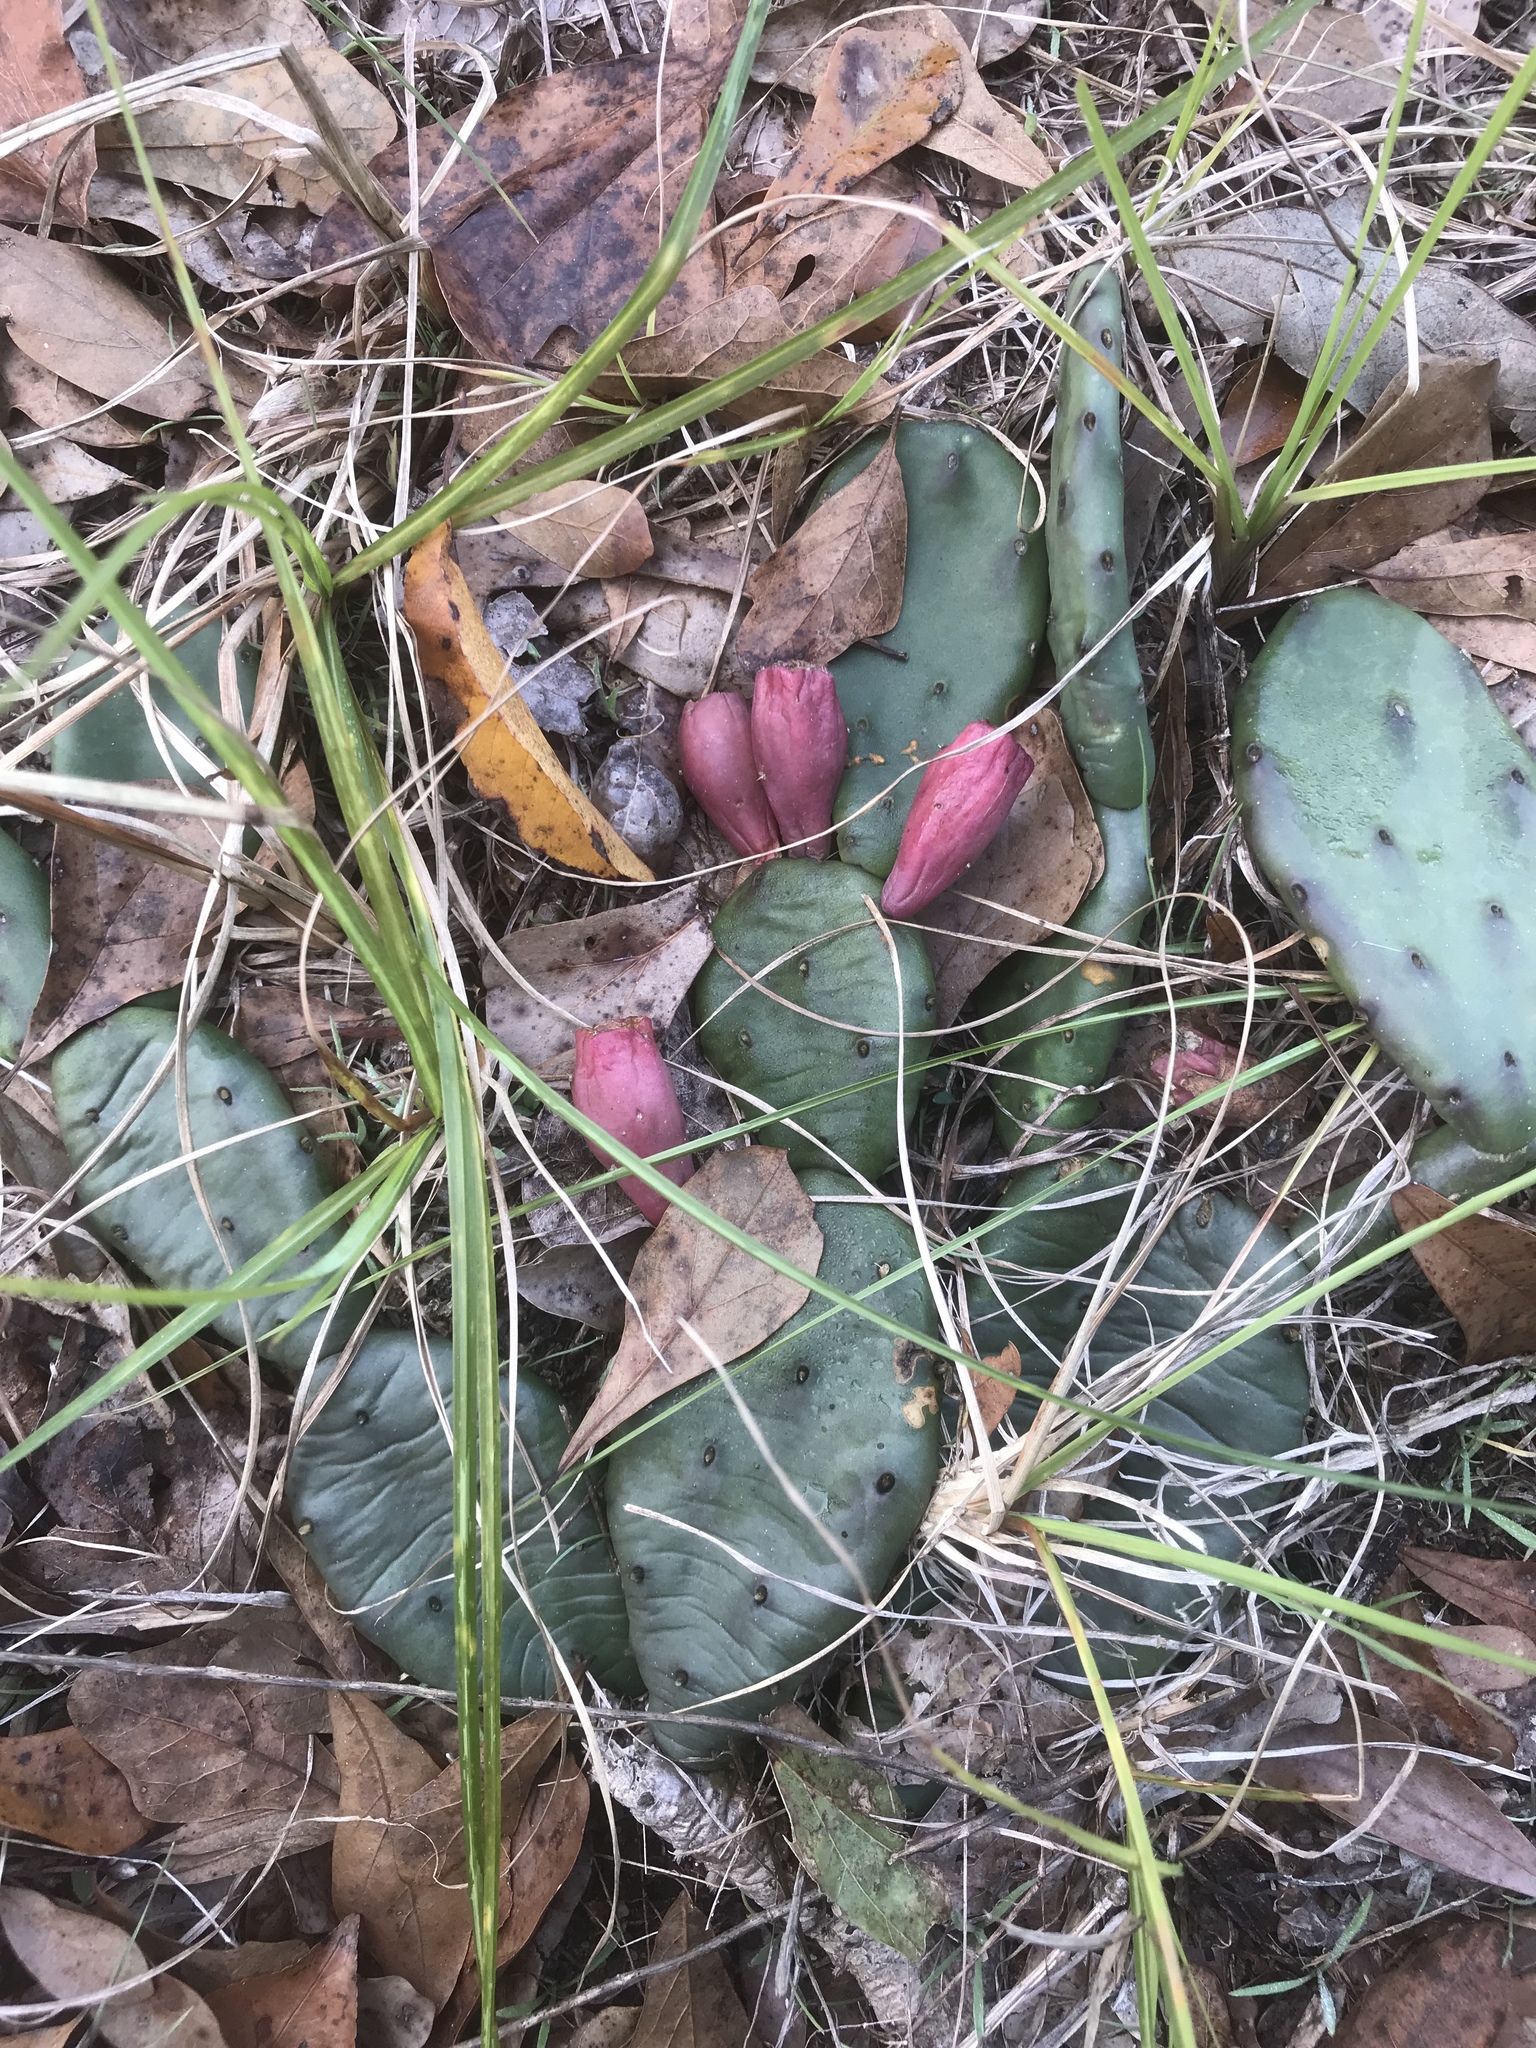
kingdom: Plantae
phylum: Tracheophyta
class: Magnoliopsida
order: Caryophyllales
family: Cactaceae
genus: Opuntia
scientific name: Opuntia mesacantha
